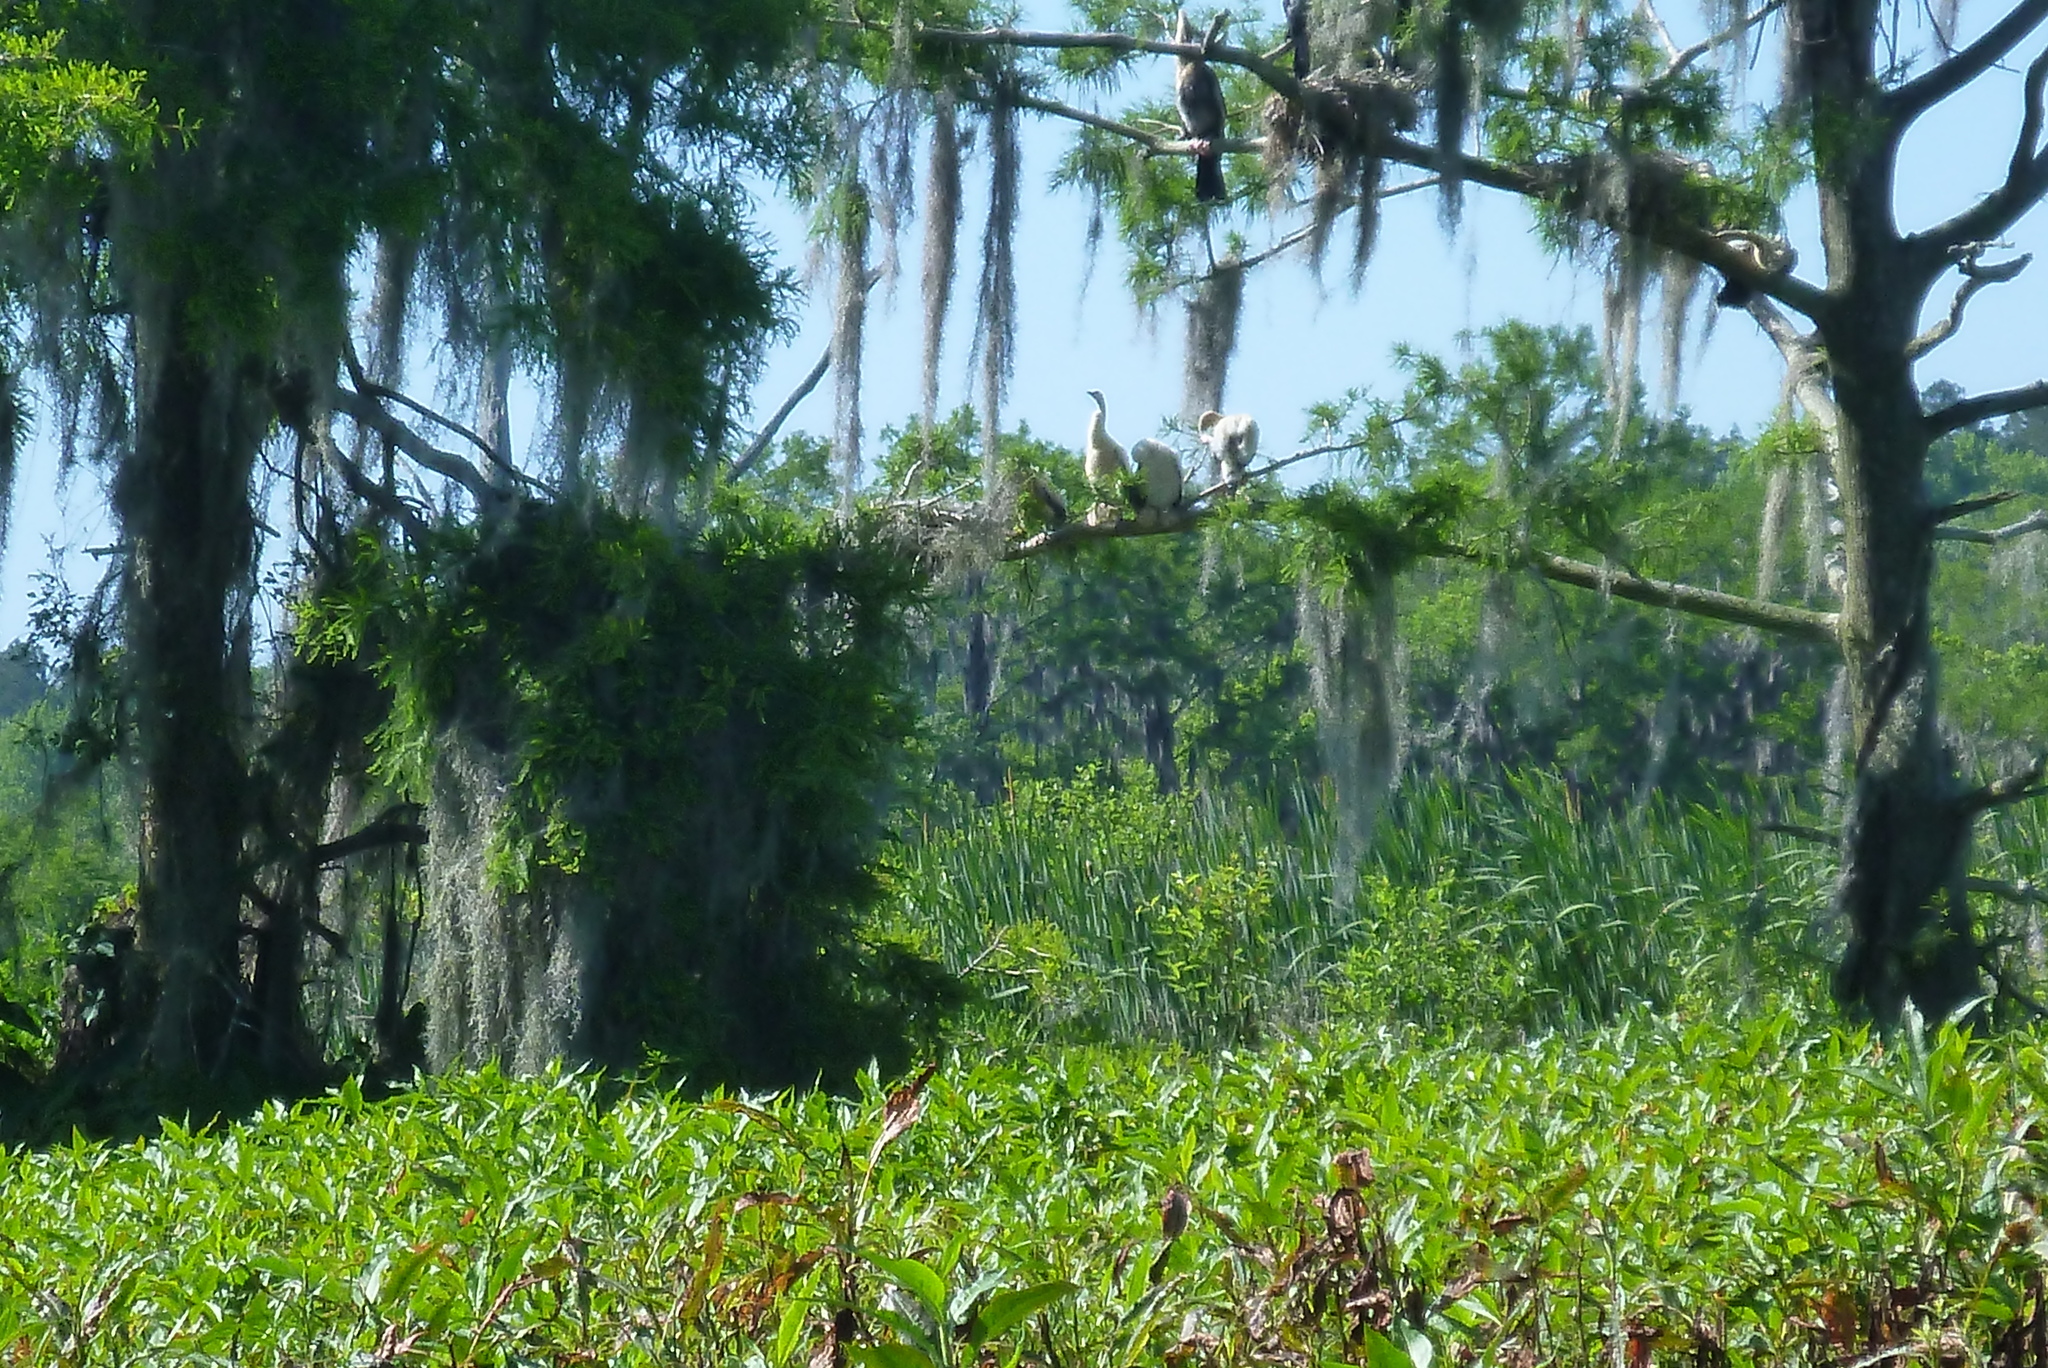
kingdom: Animalia
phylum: Chordata
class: Aves
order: Suliformes
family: Anhingidae
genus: Anhinga
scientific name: Anhinga anhinga
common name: Anhinga
